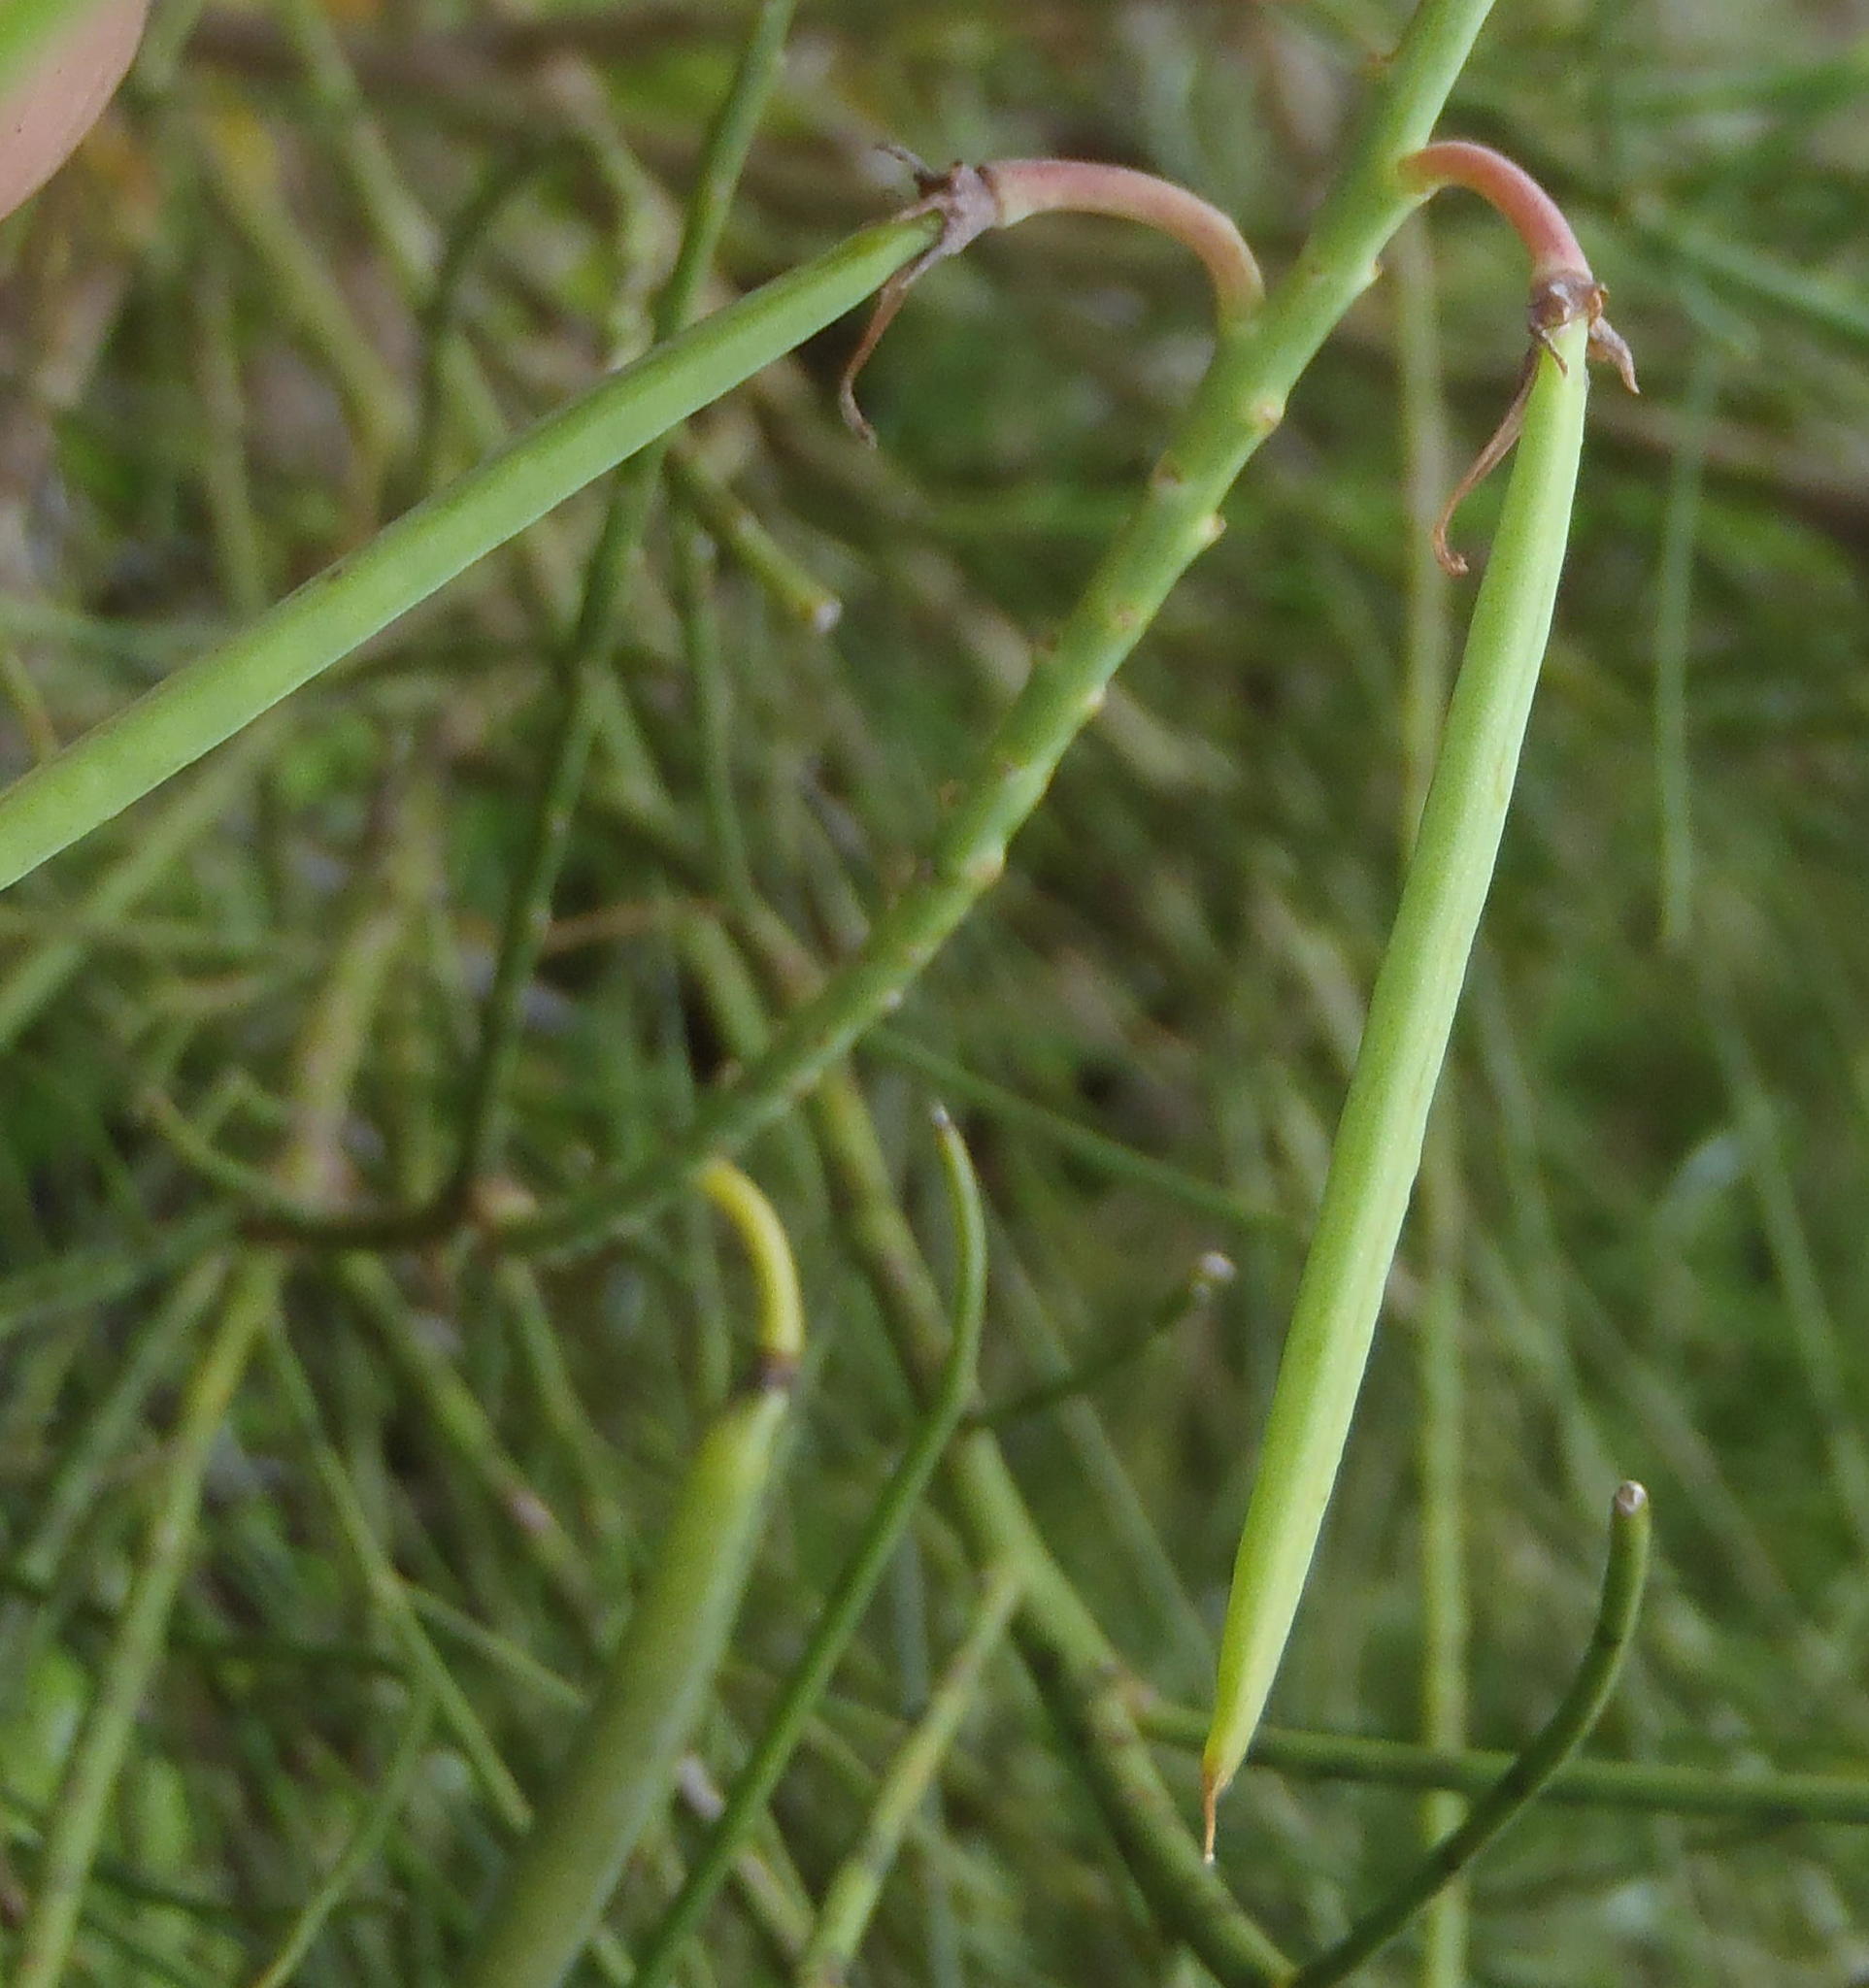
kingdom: Plantae
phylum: Tracheophyta
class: Magnoliopsida
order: Fabales
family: Fabaceae
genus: Indigofera
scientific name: Indigofera filifolia
